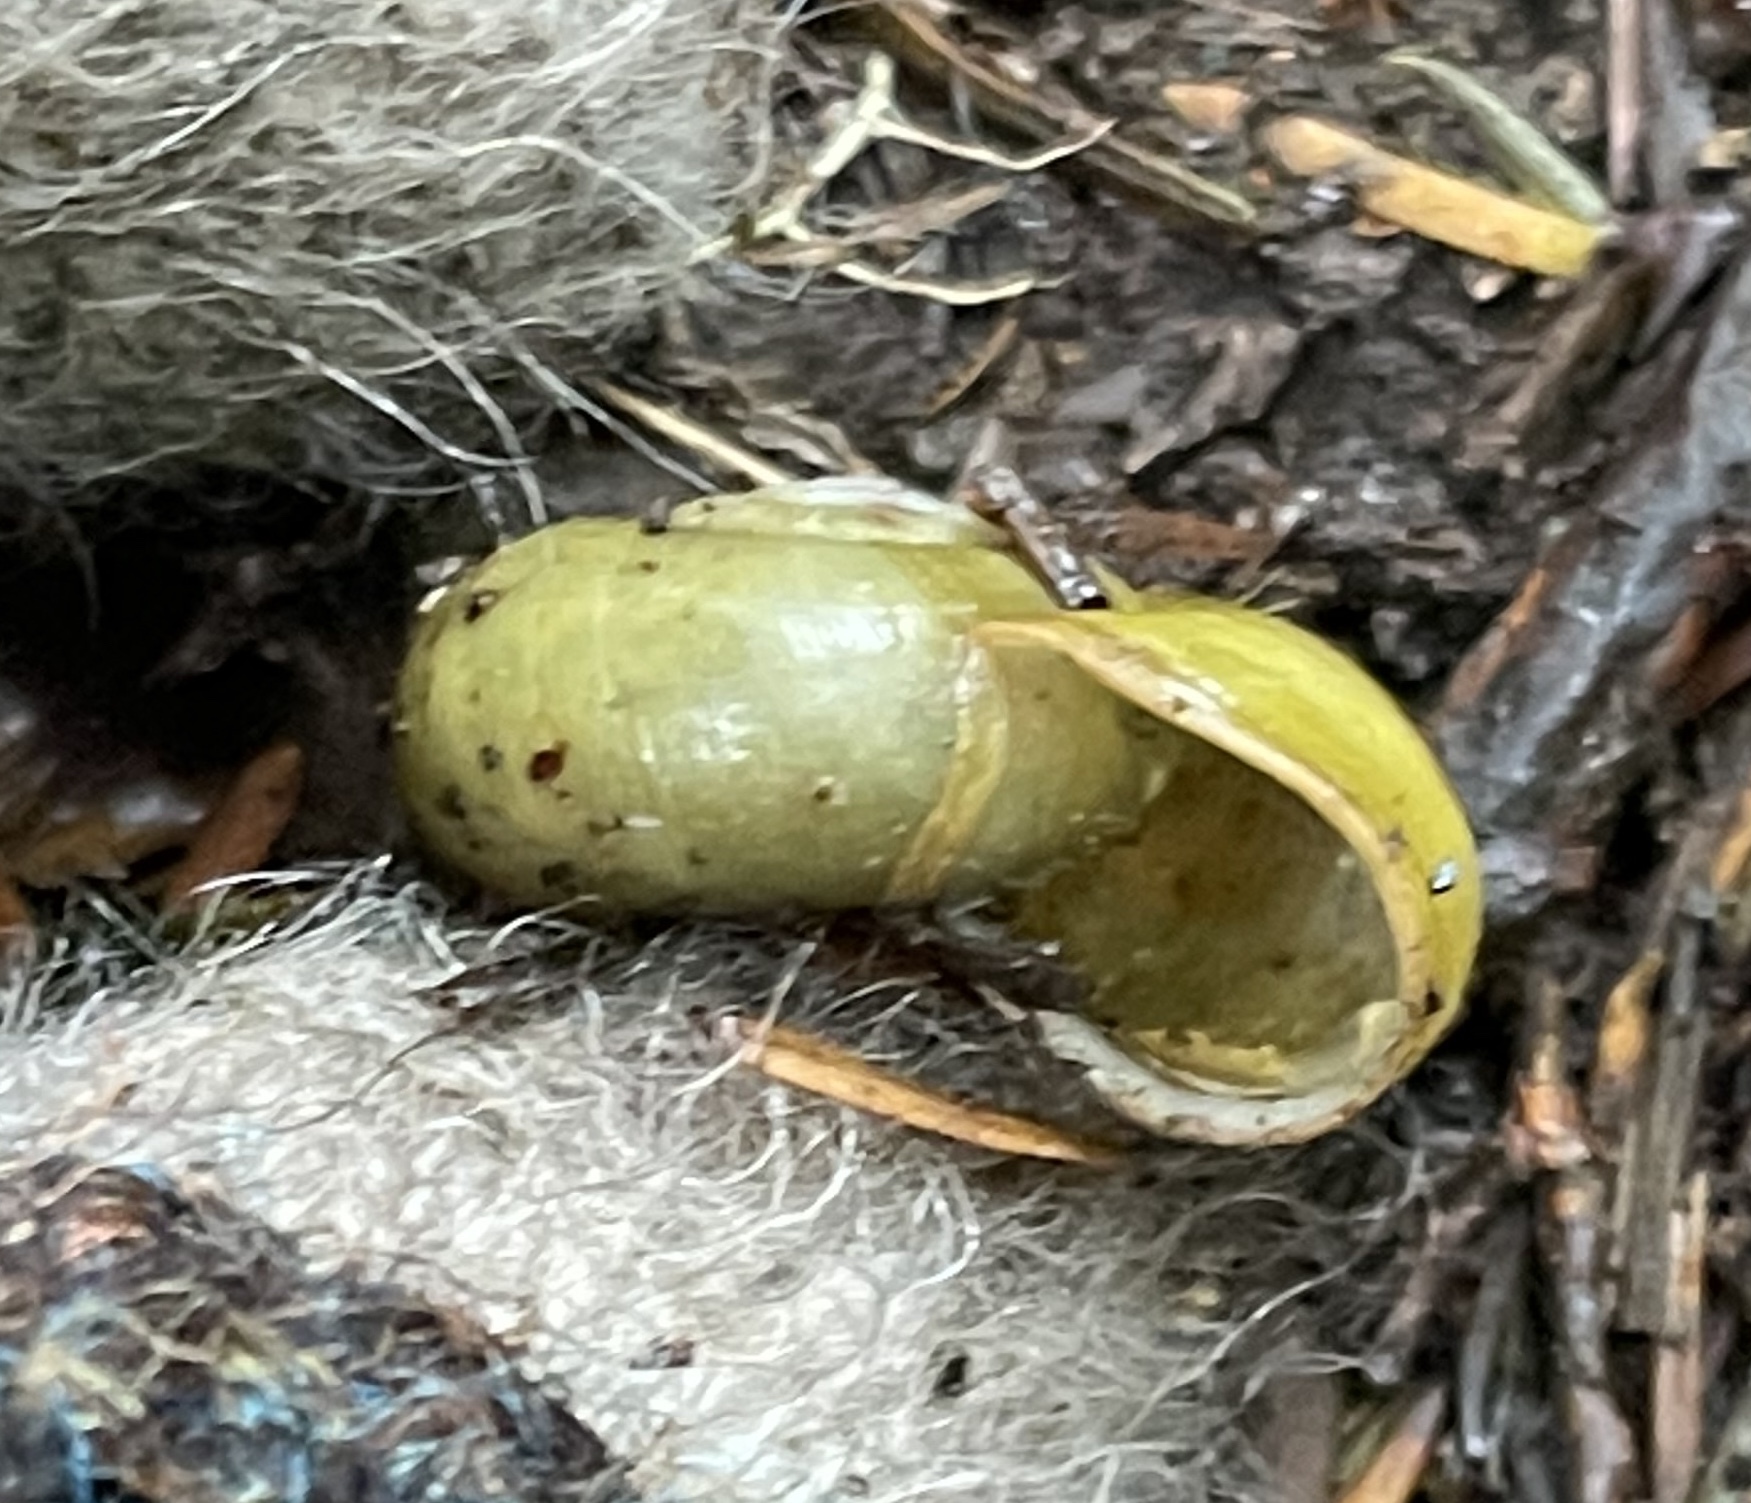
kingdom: Animalia
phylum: Mollusca
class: Gastropoda
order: Stylommatophora
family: Haplotrematidae
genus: Haplotrema
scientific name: Haplotrema vancouverense
